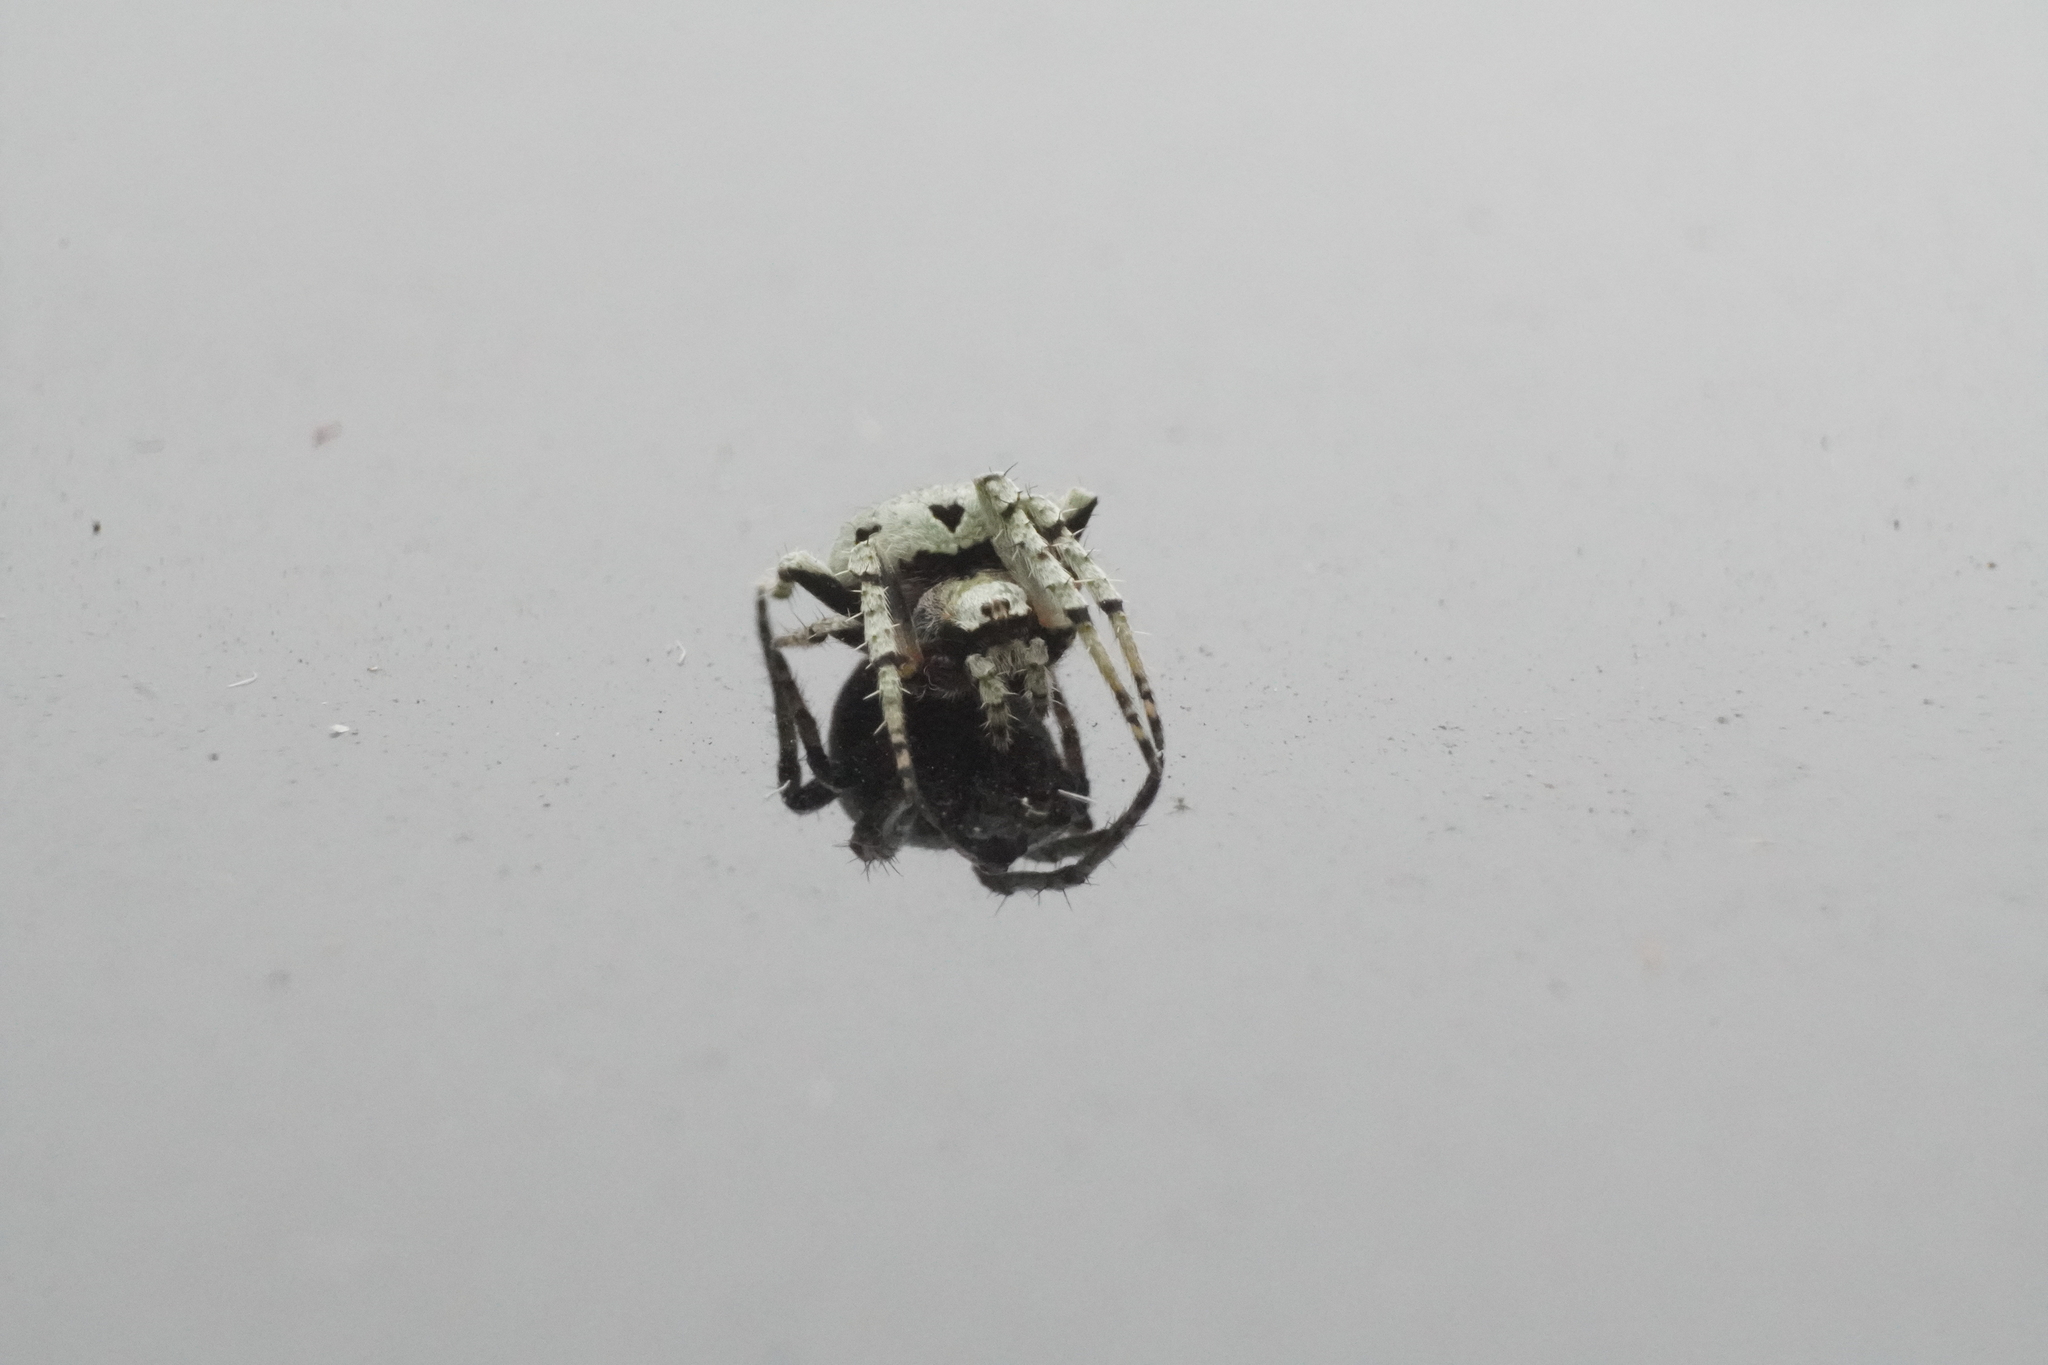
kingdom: Animalia
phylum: Arthropoda
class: Arachnida
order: Araneae
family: Araneidae
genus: Eustala
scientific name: Eustala anastera
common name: Orb weavers
